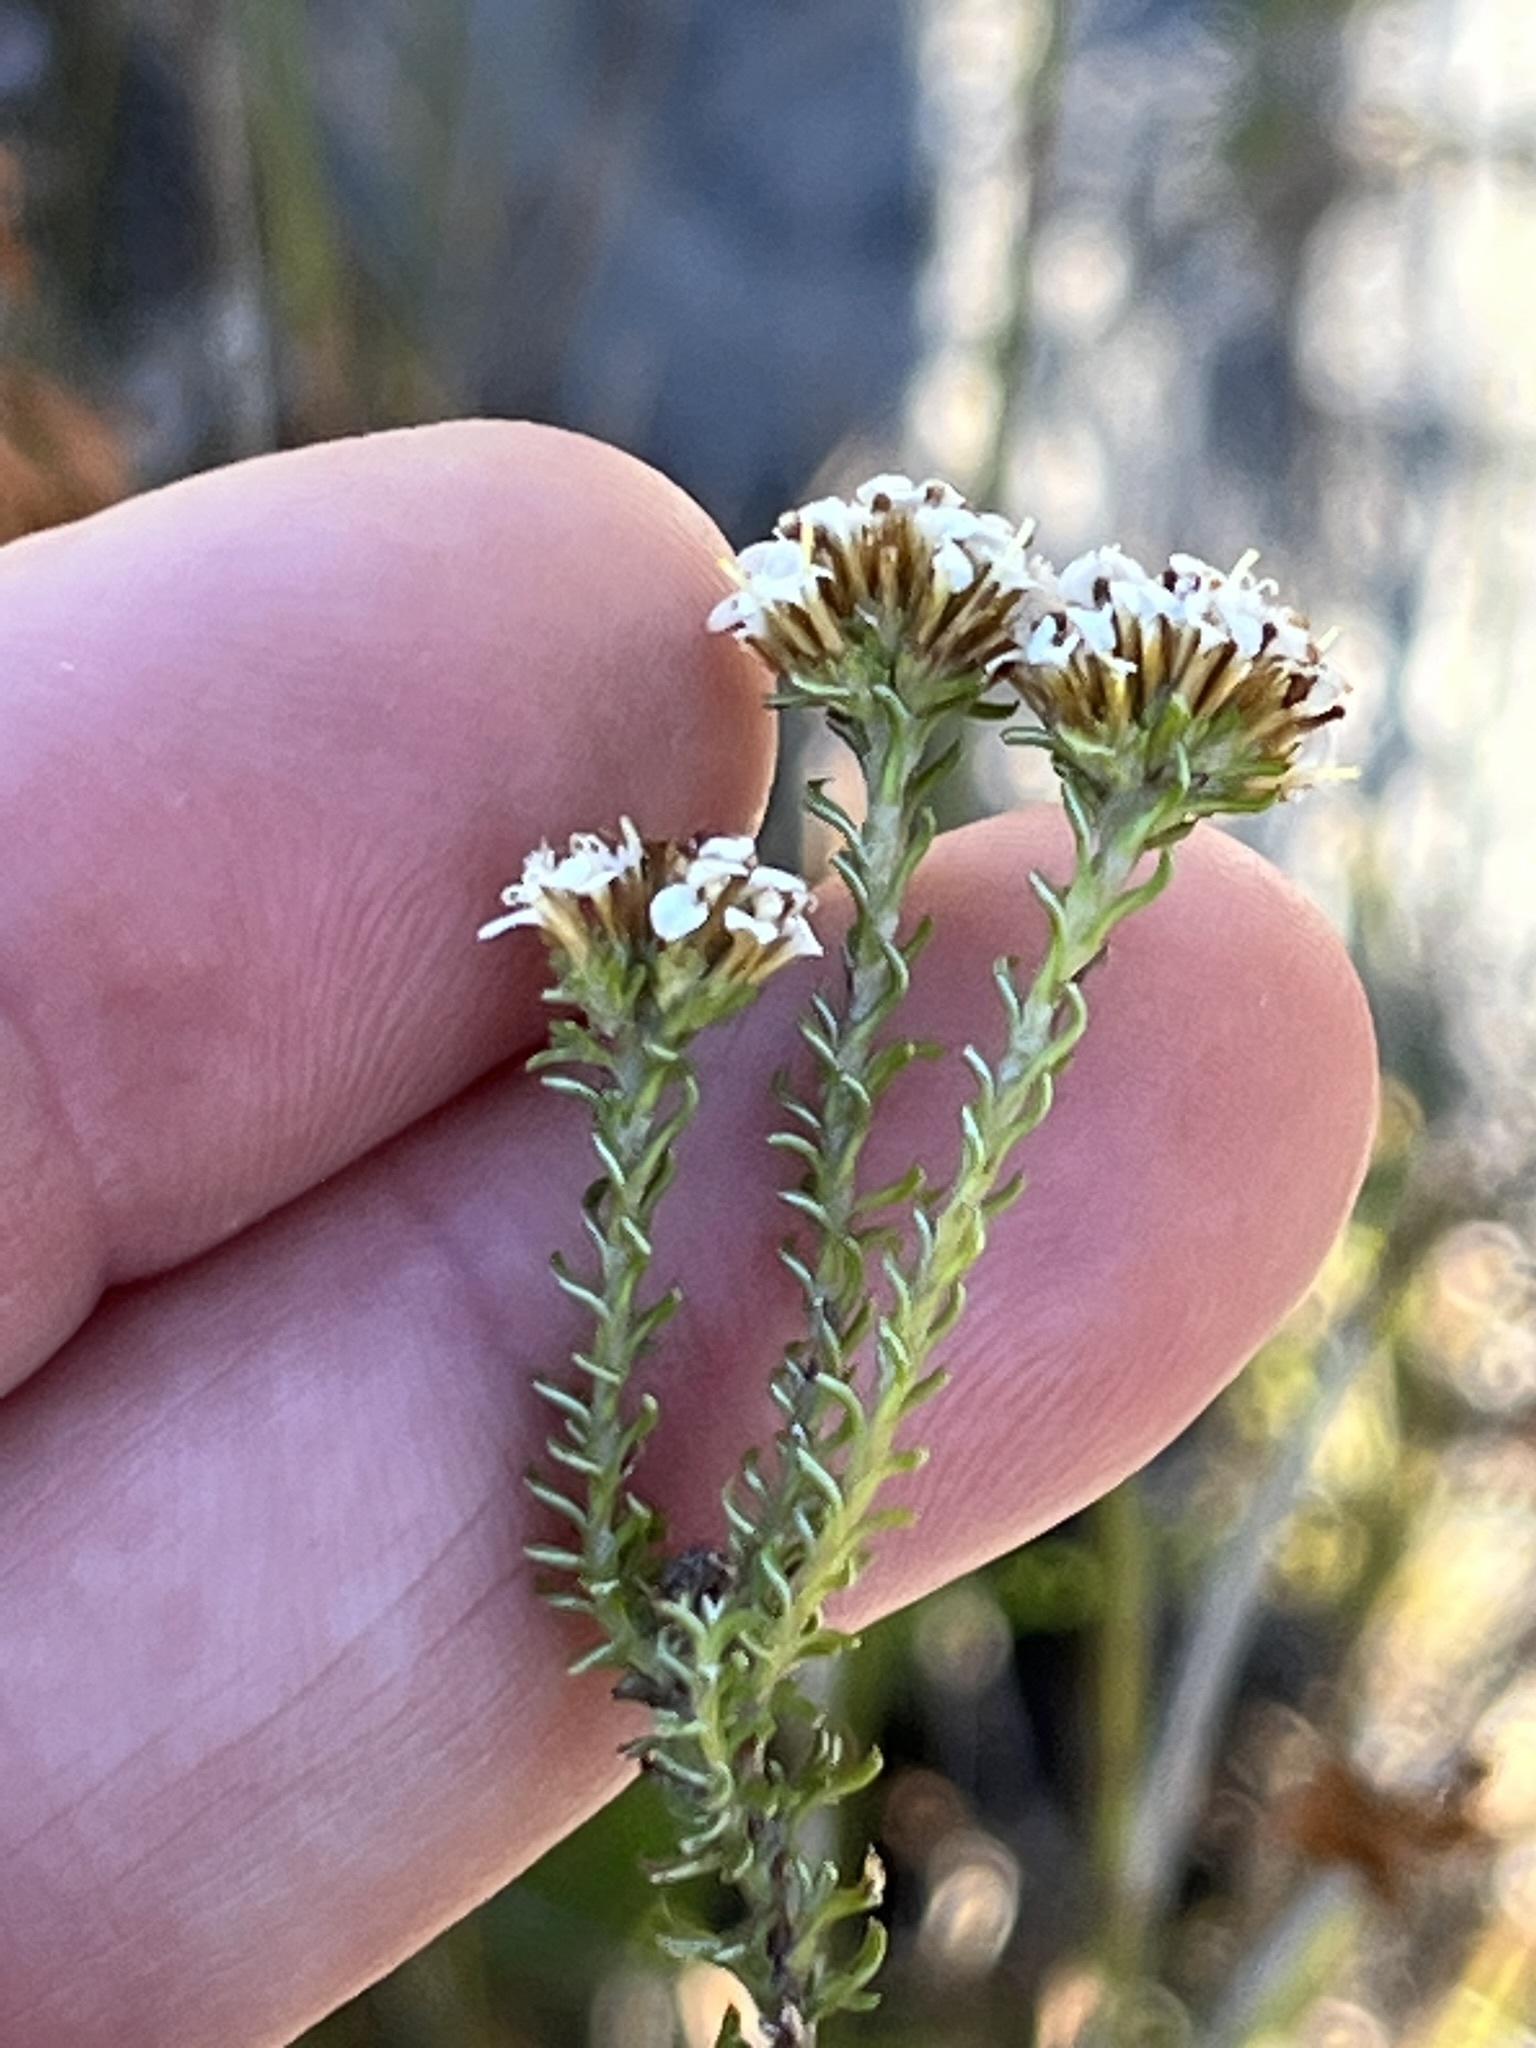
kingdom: Plantae
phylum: Tracheophyta
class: Magnoliopsida
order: Asterales
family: Asteraceae
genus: Disparago
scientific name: Disparago anomala
